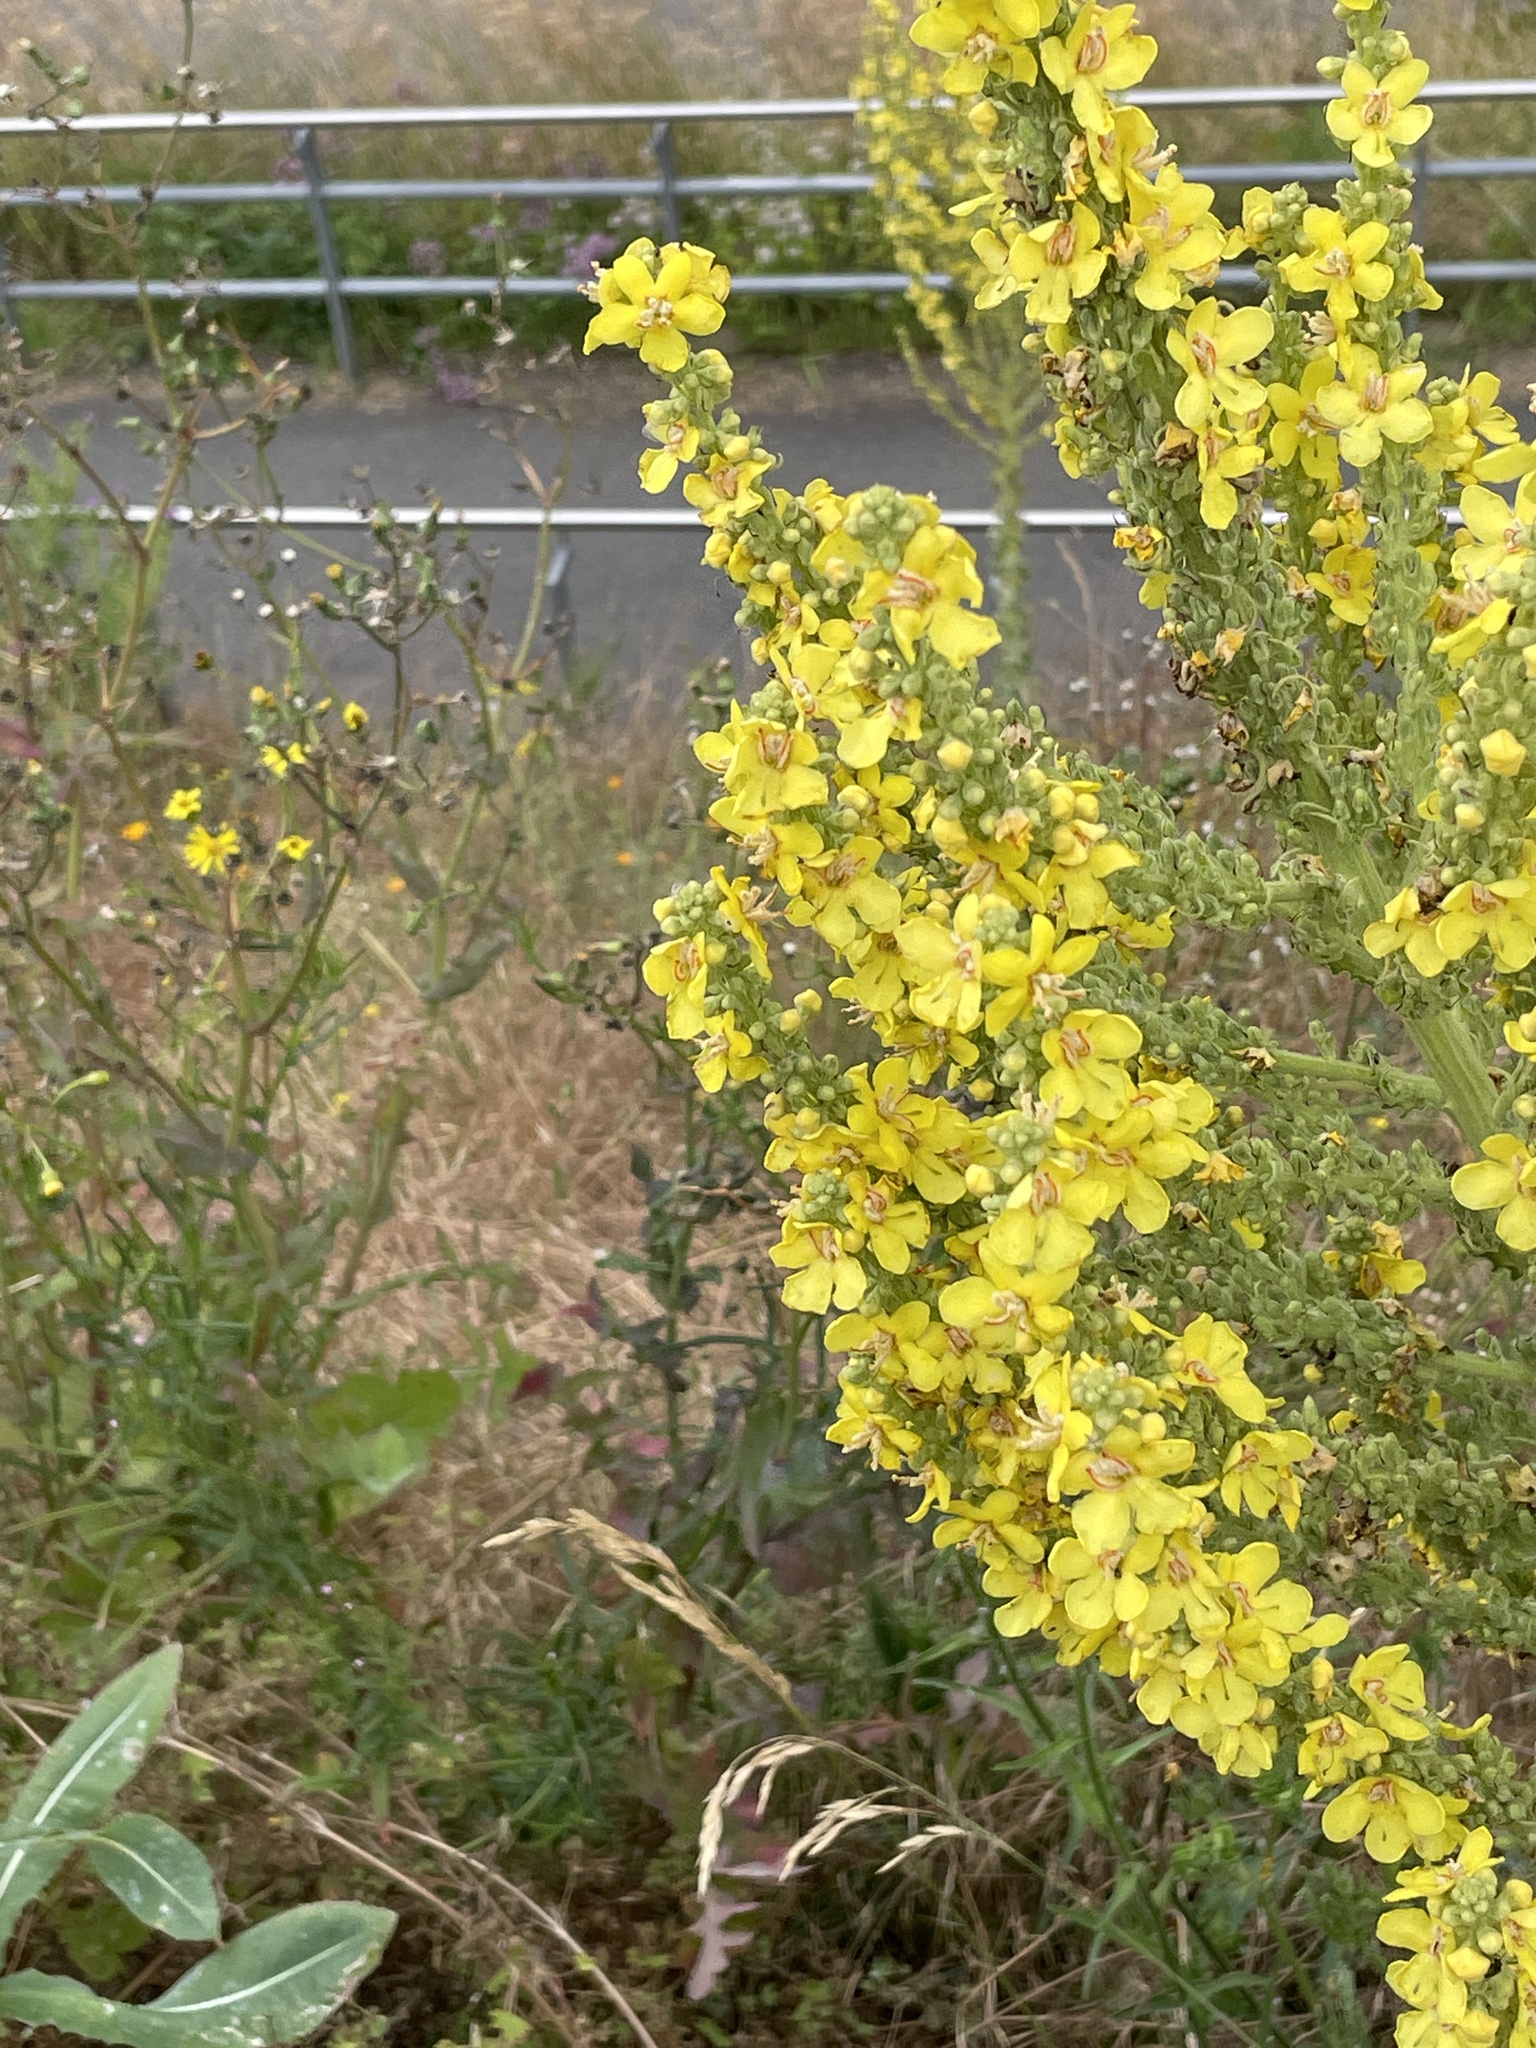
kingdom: Plantae
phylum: Tracheophyta
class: Magnoliopsida
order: Lamiales
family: Scrophulariaceae
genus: Verbascum
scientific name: Verbascum speciosum
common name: Hungarian mullein
